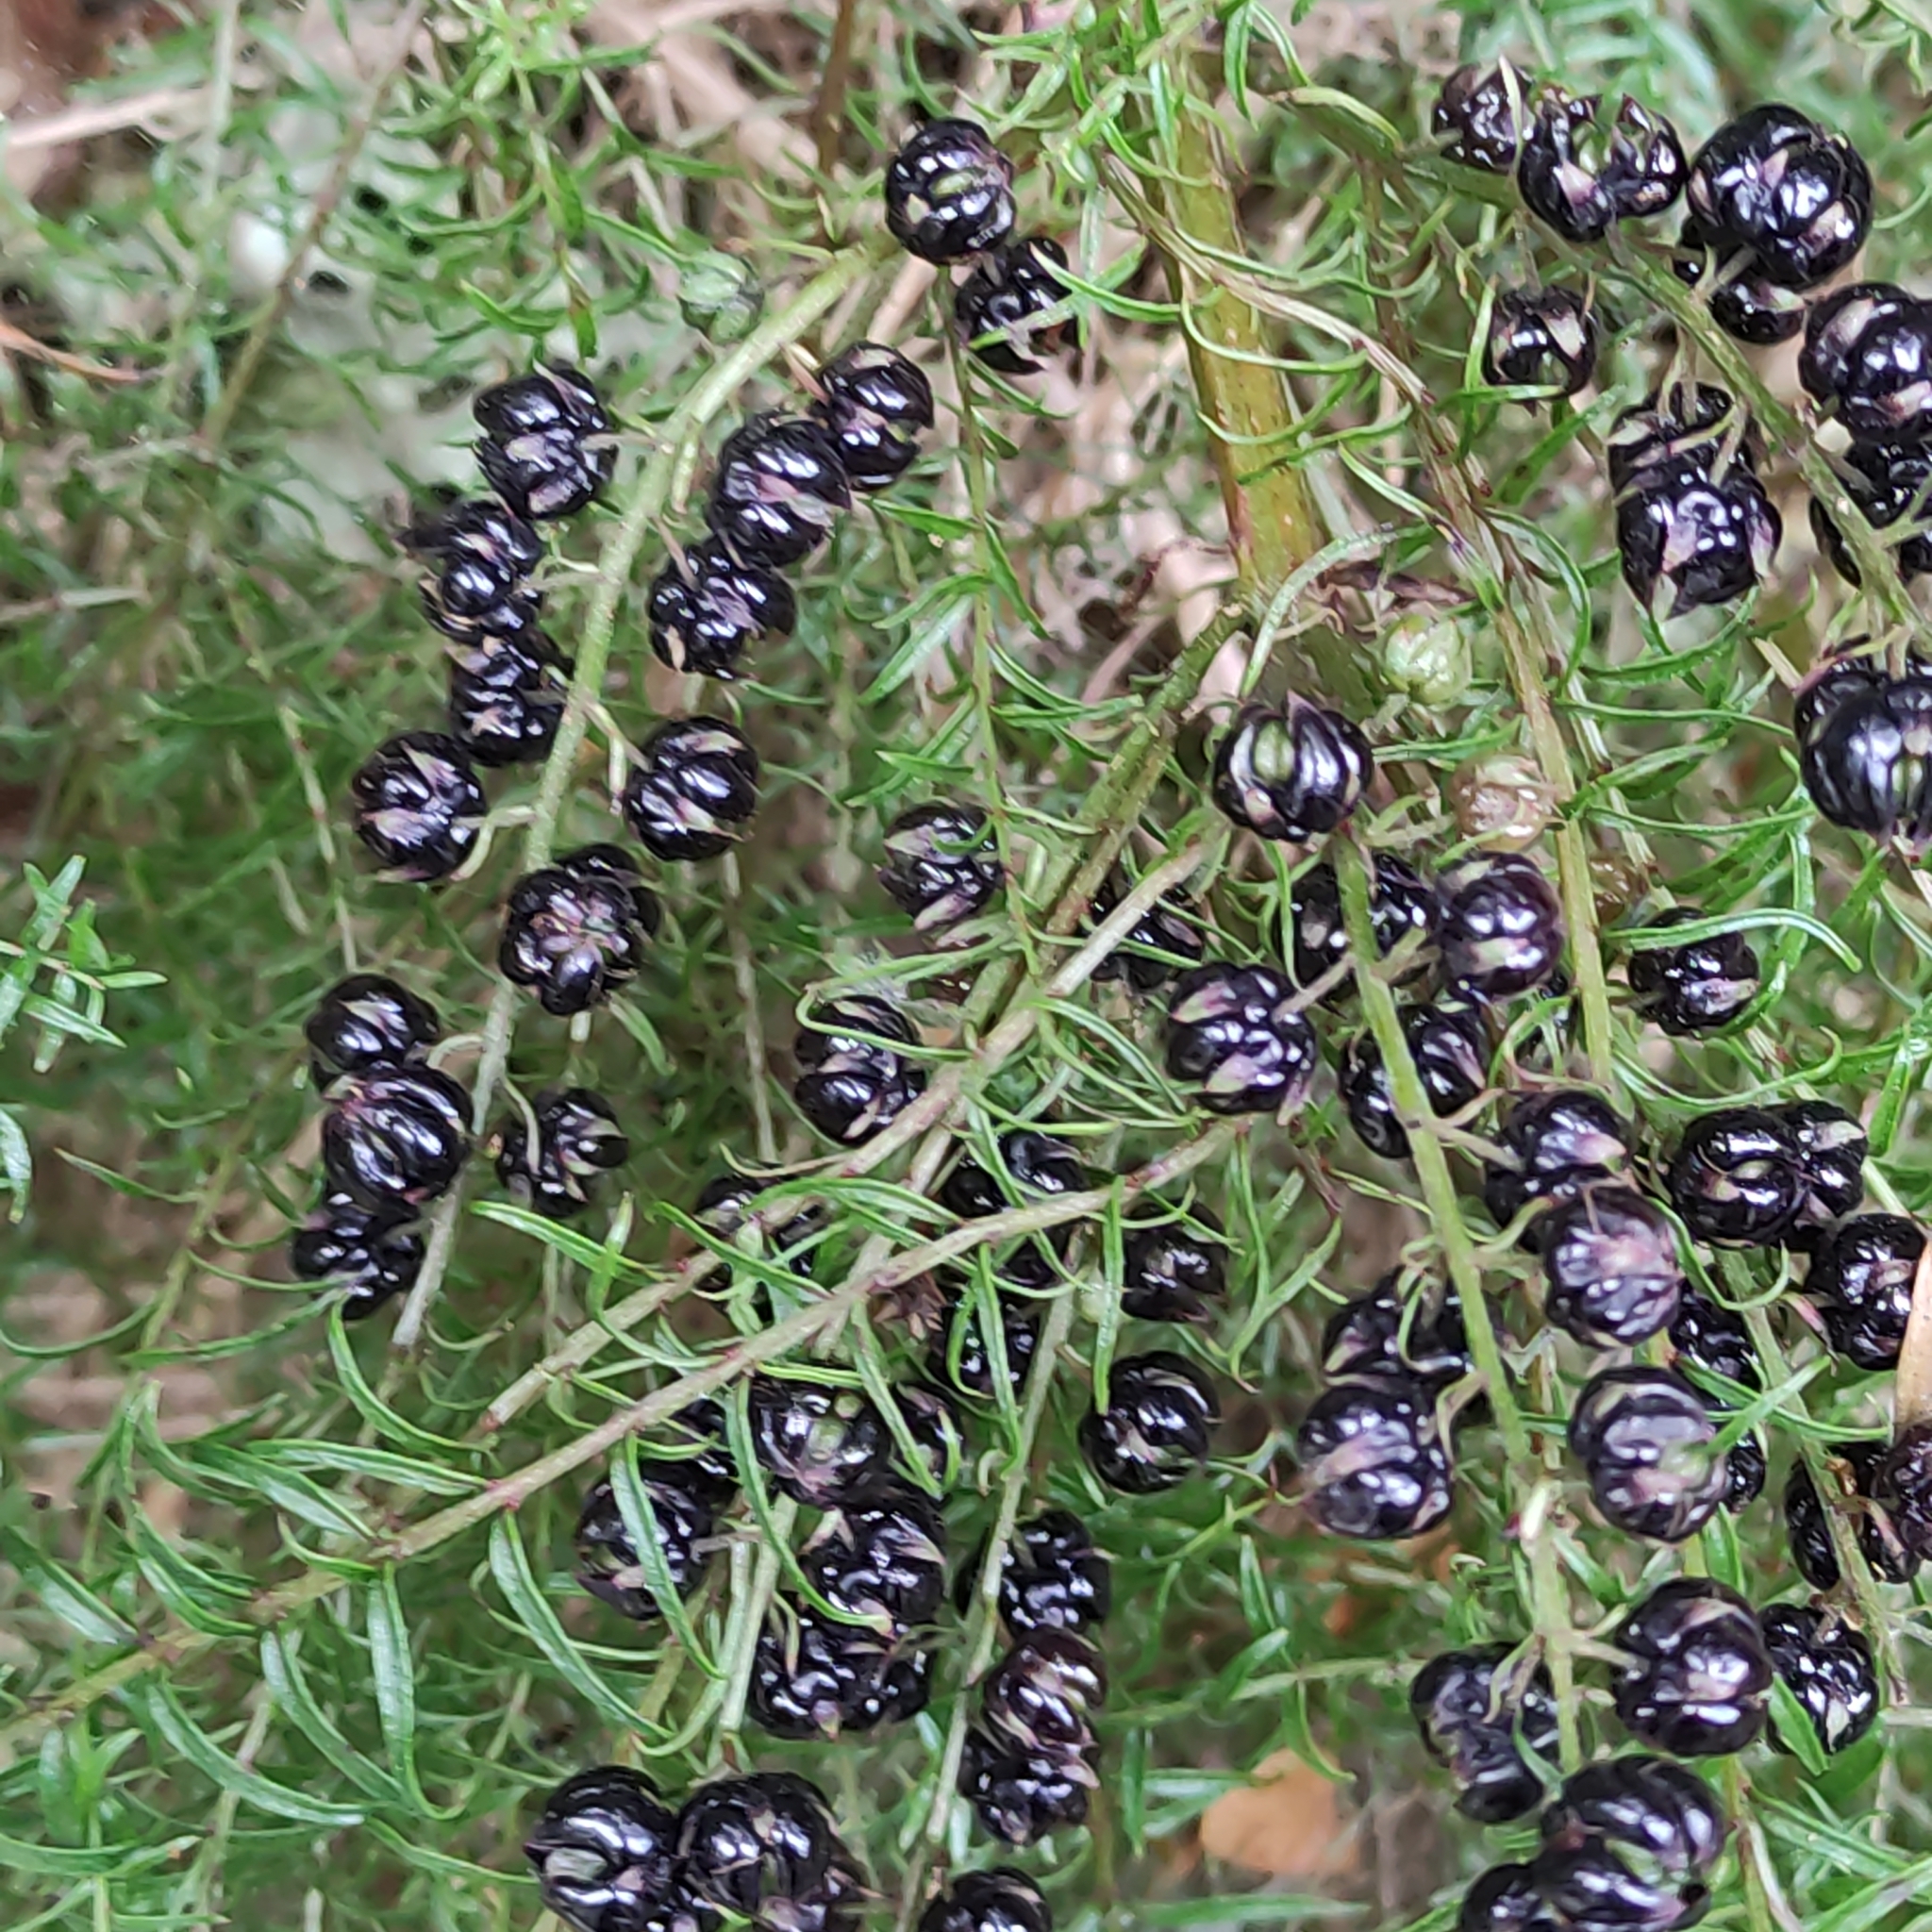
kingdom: Plantae
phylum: Tracheophyta
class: Magnoliopsida
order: Cucurbitales
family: Coriariaceae
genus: Coriaria
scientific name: Coriaria angustissima
